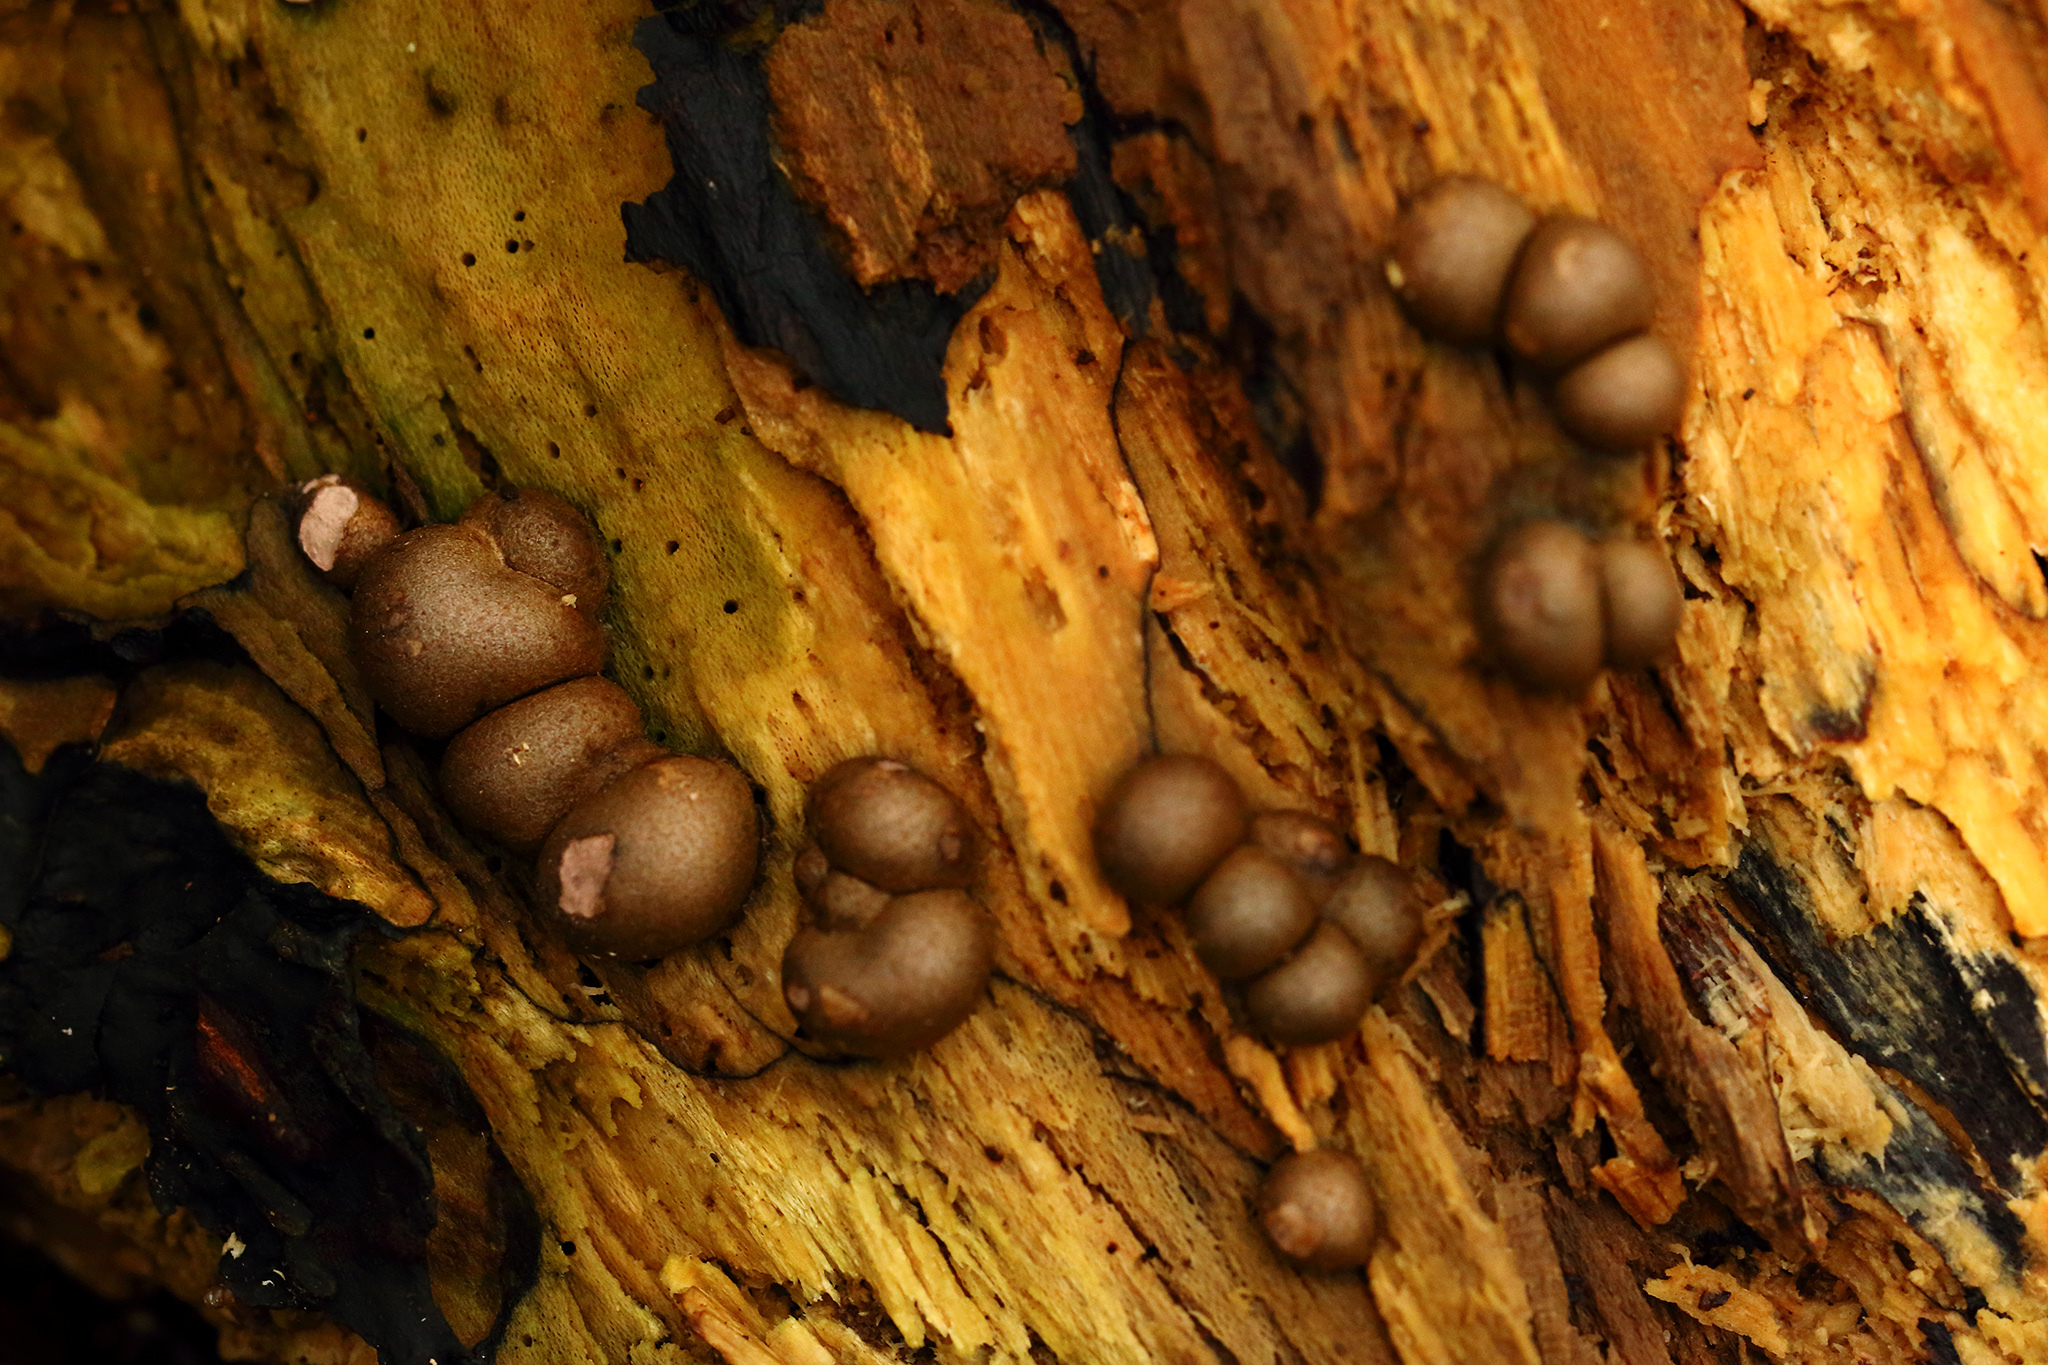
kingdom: Protozoa
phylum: Mycetozoa
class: Myxomycetes
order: Cribrariales
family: Tubiferaceae
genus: Lycogala
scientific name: Lycogala epidendrum
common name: Wolf's milk
